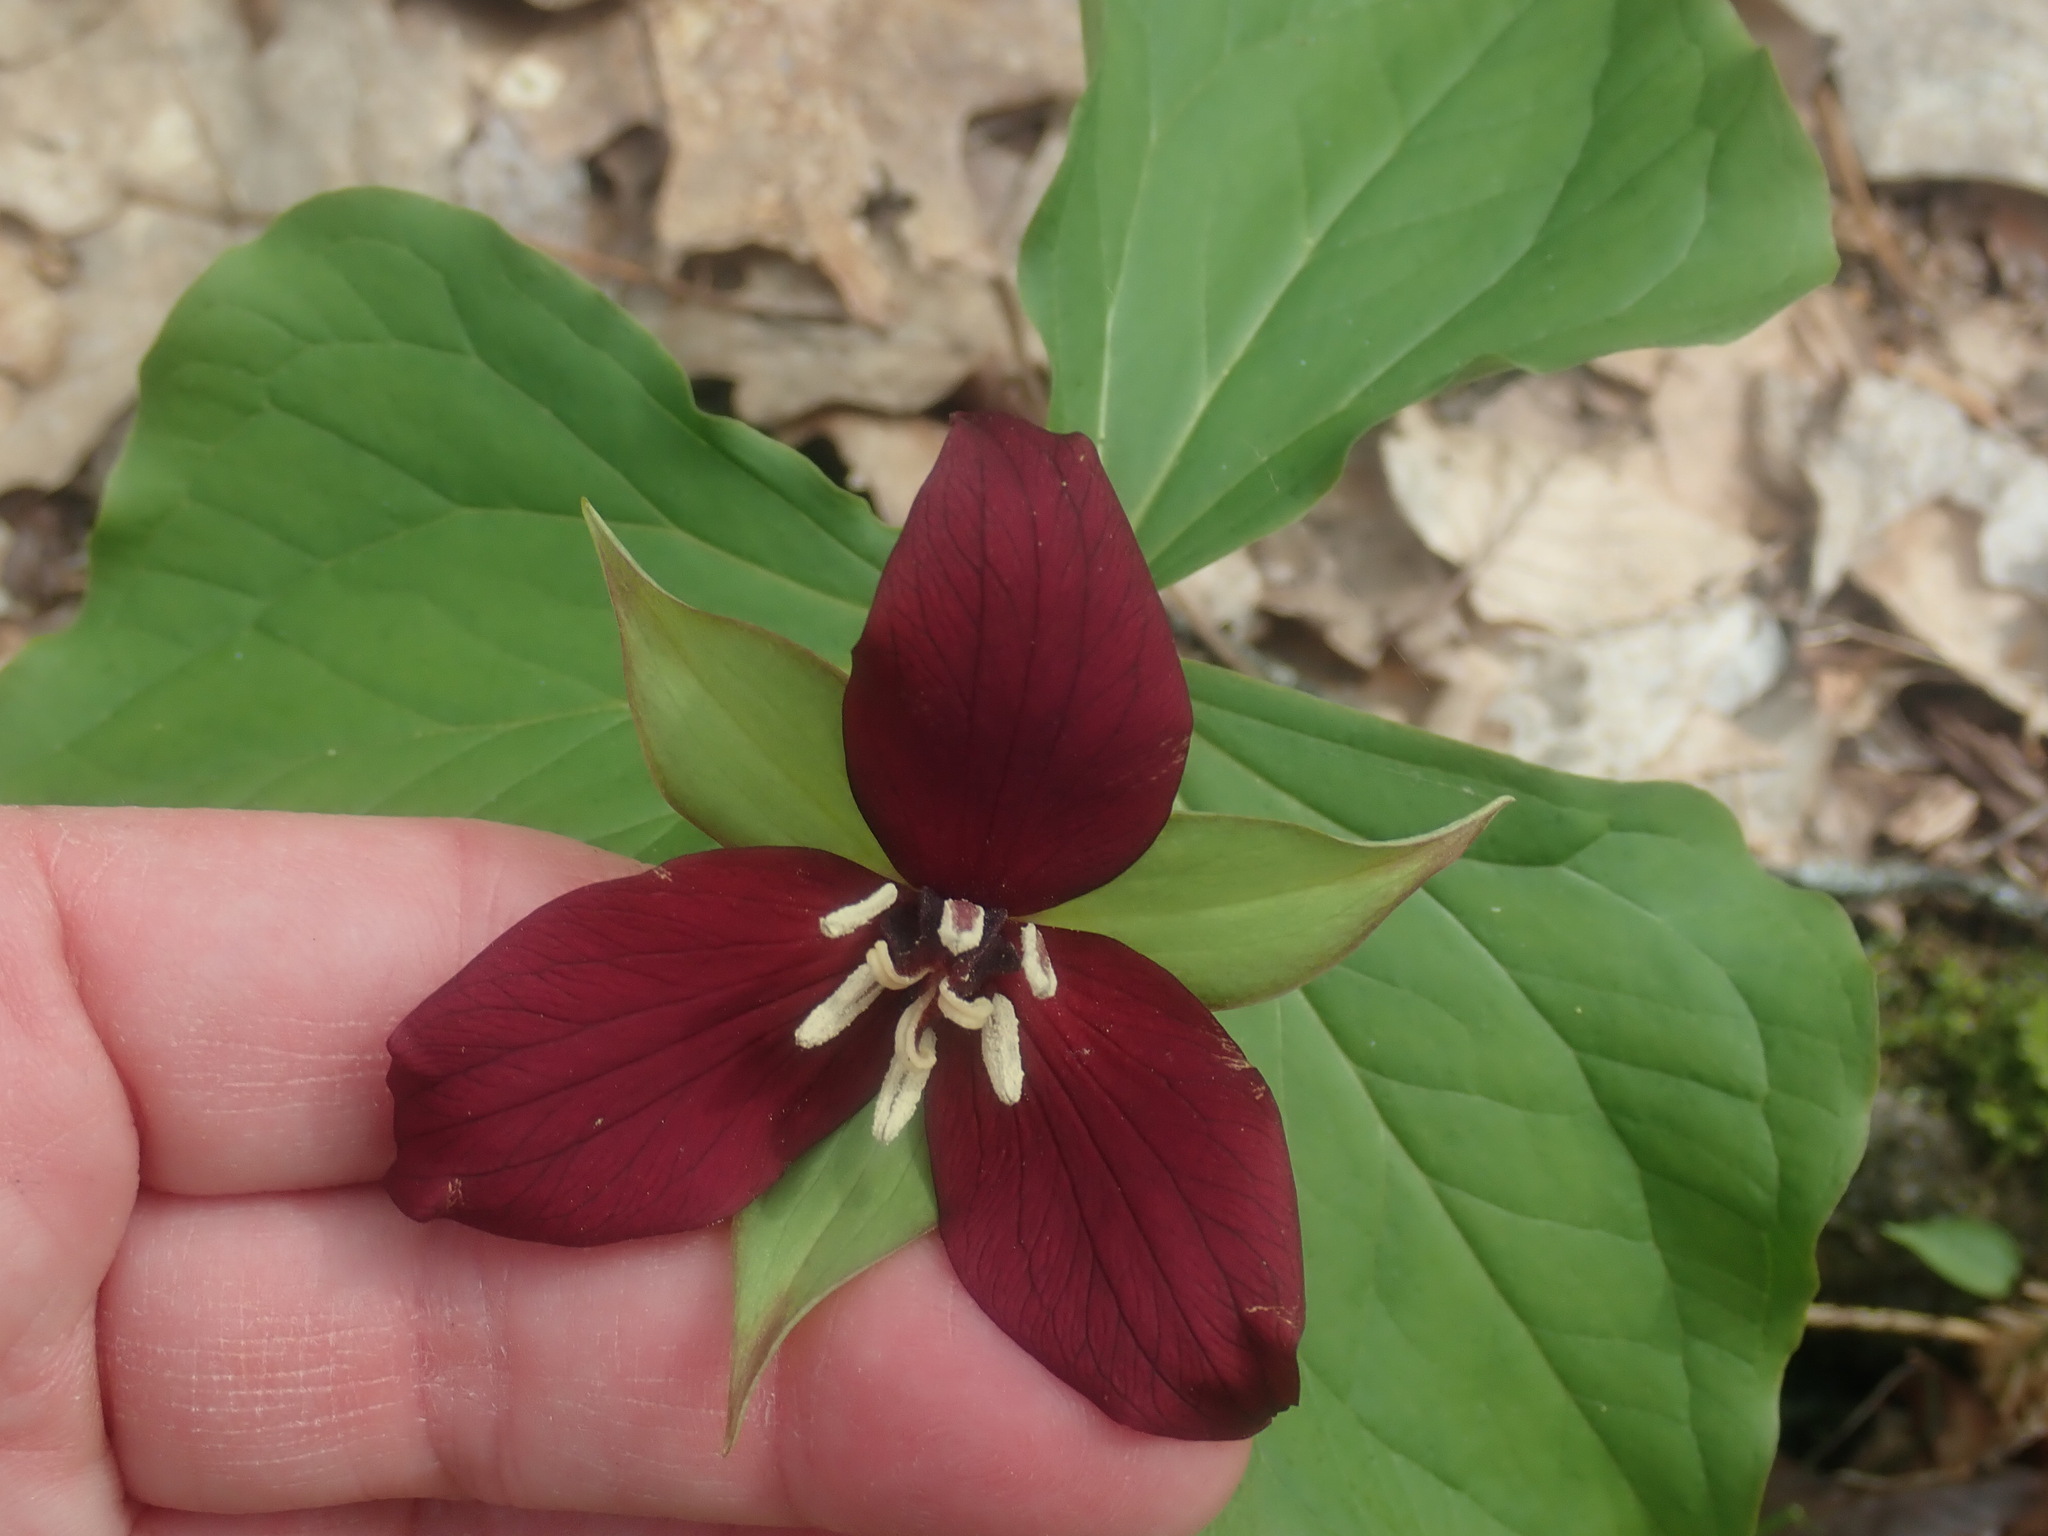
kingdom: Plantae
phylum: Tracheophyta
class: Liliopsida
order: Liliales
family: Melanthiaceae
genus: Trillium
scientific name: Trillium erectum
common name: Purple trillium
